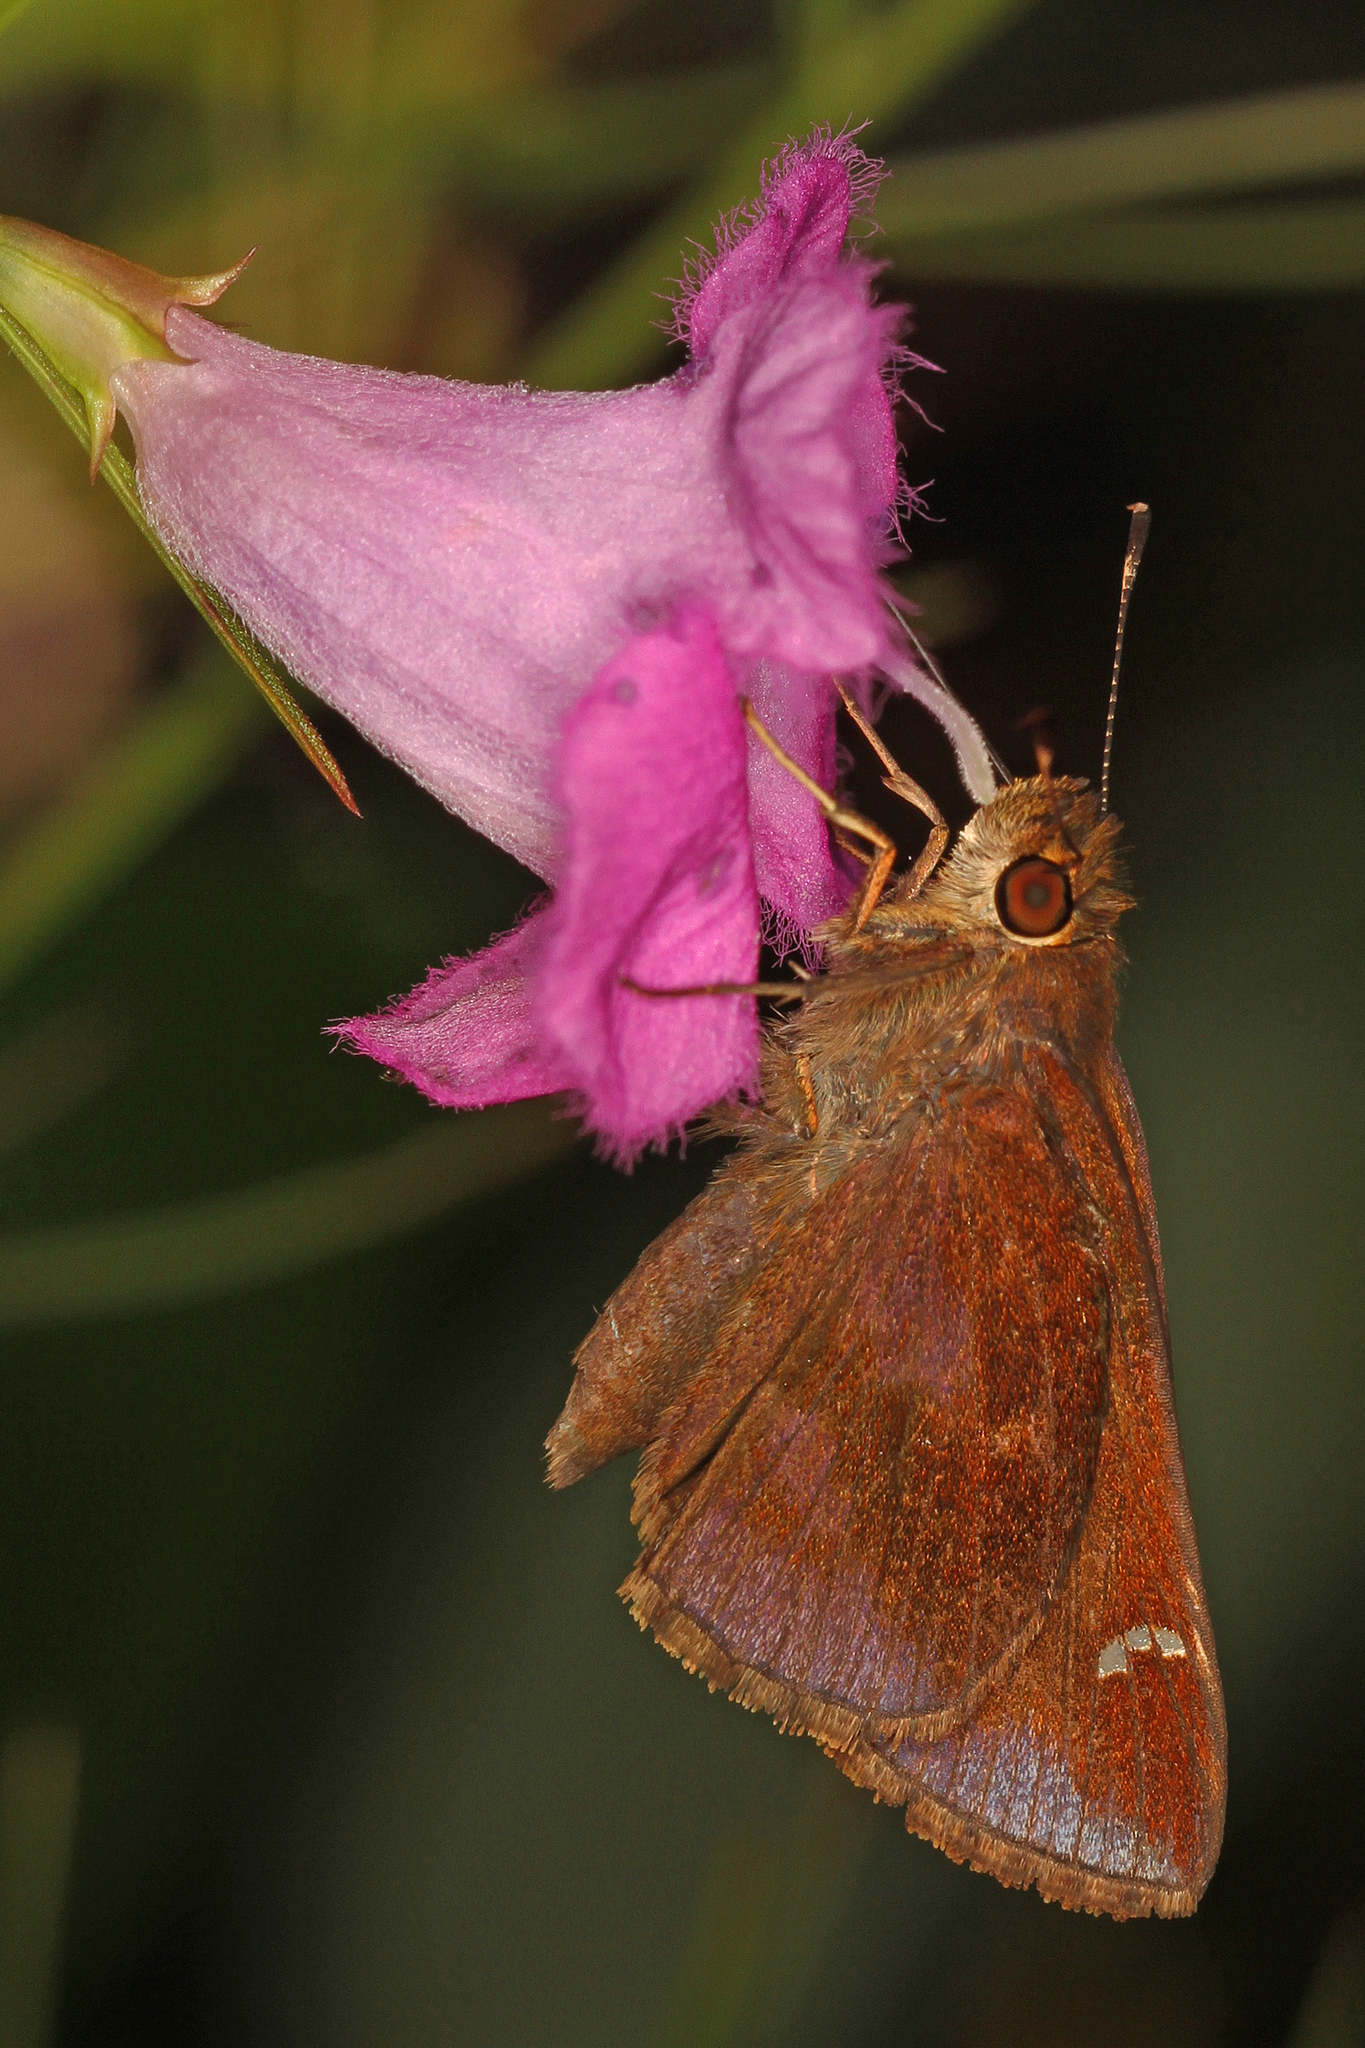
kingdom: Animalia
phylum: Arthropoda
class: Insecta
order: Lepidoptera
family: Hesperiidae
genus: Lerema
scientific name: Lerema accius
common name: Clouded skipper
